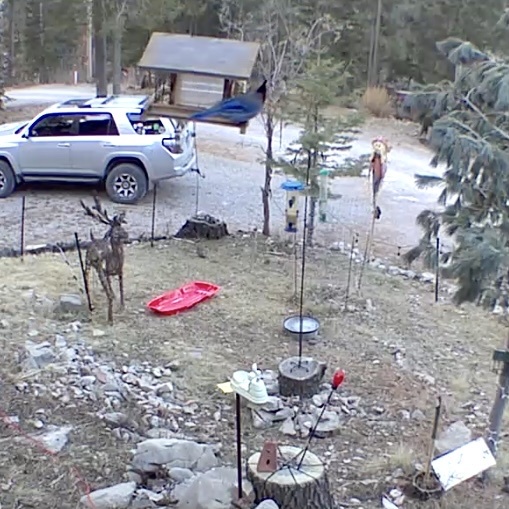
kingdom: Animalia
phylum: Chordata
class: Aves
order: Passeriformes
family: Corvidae
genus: Cyanocitta
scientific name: Cyanocitta stelleri
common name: Steller's jay
